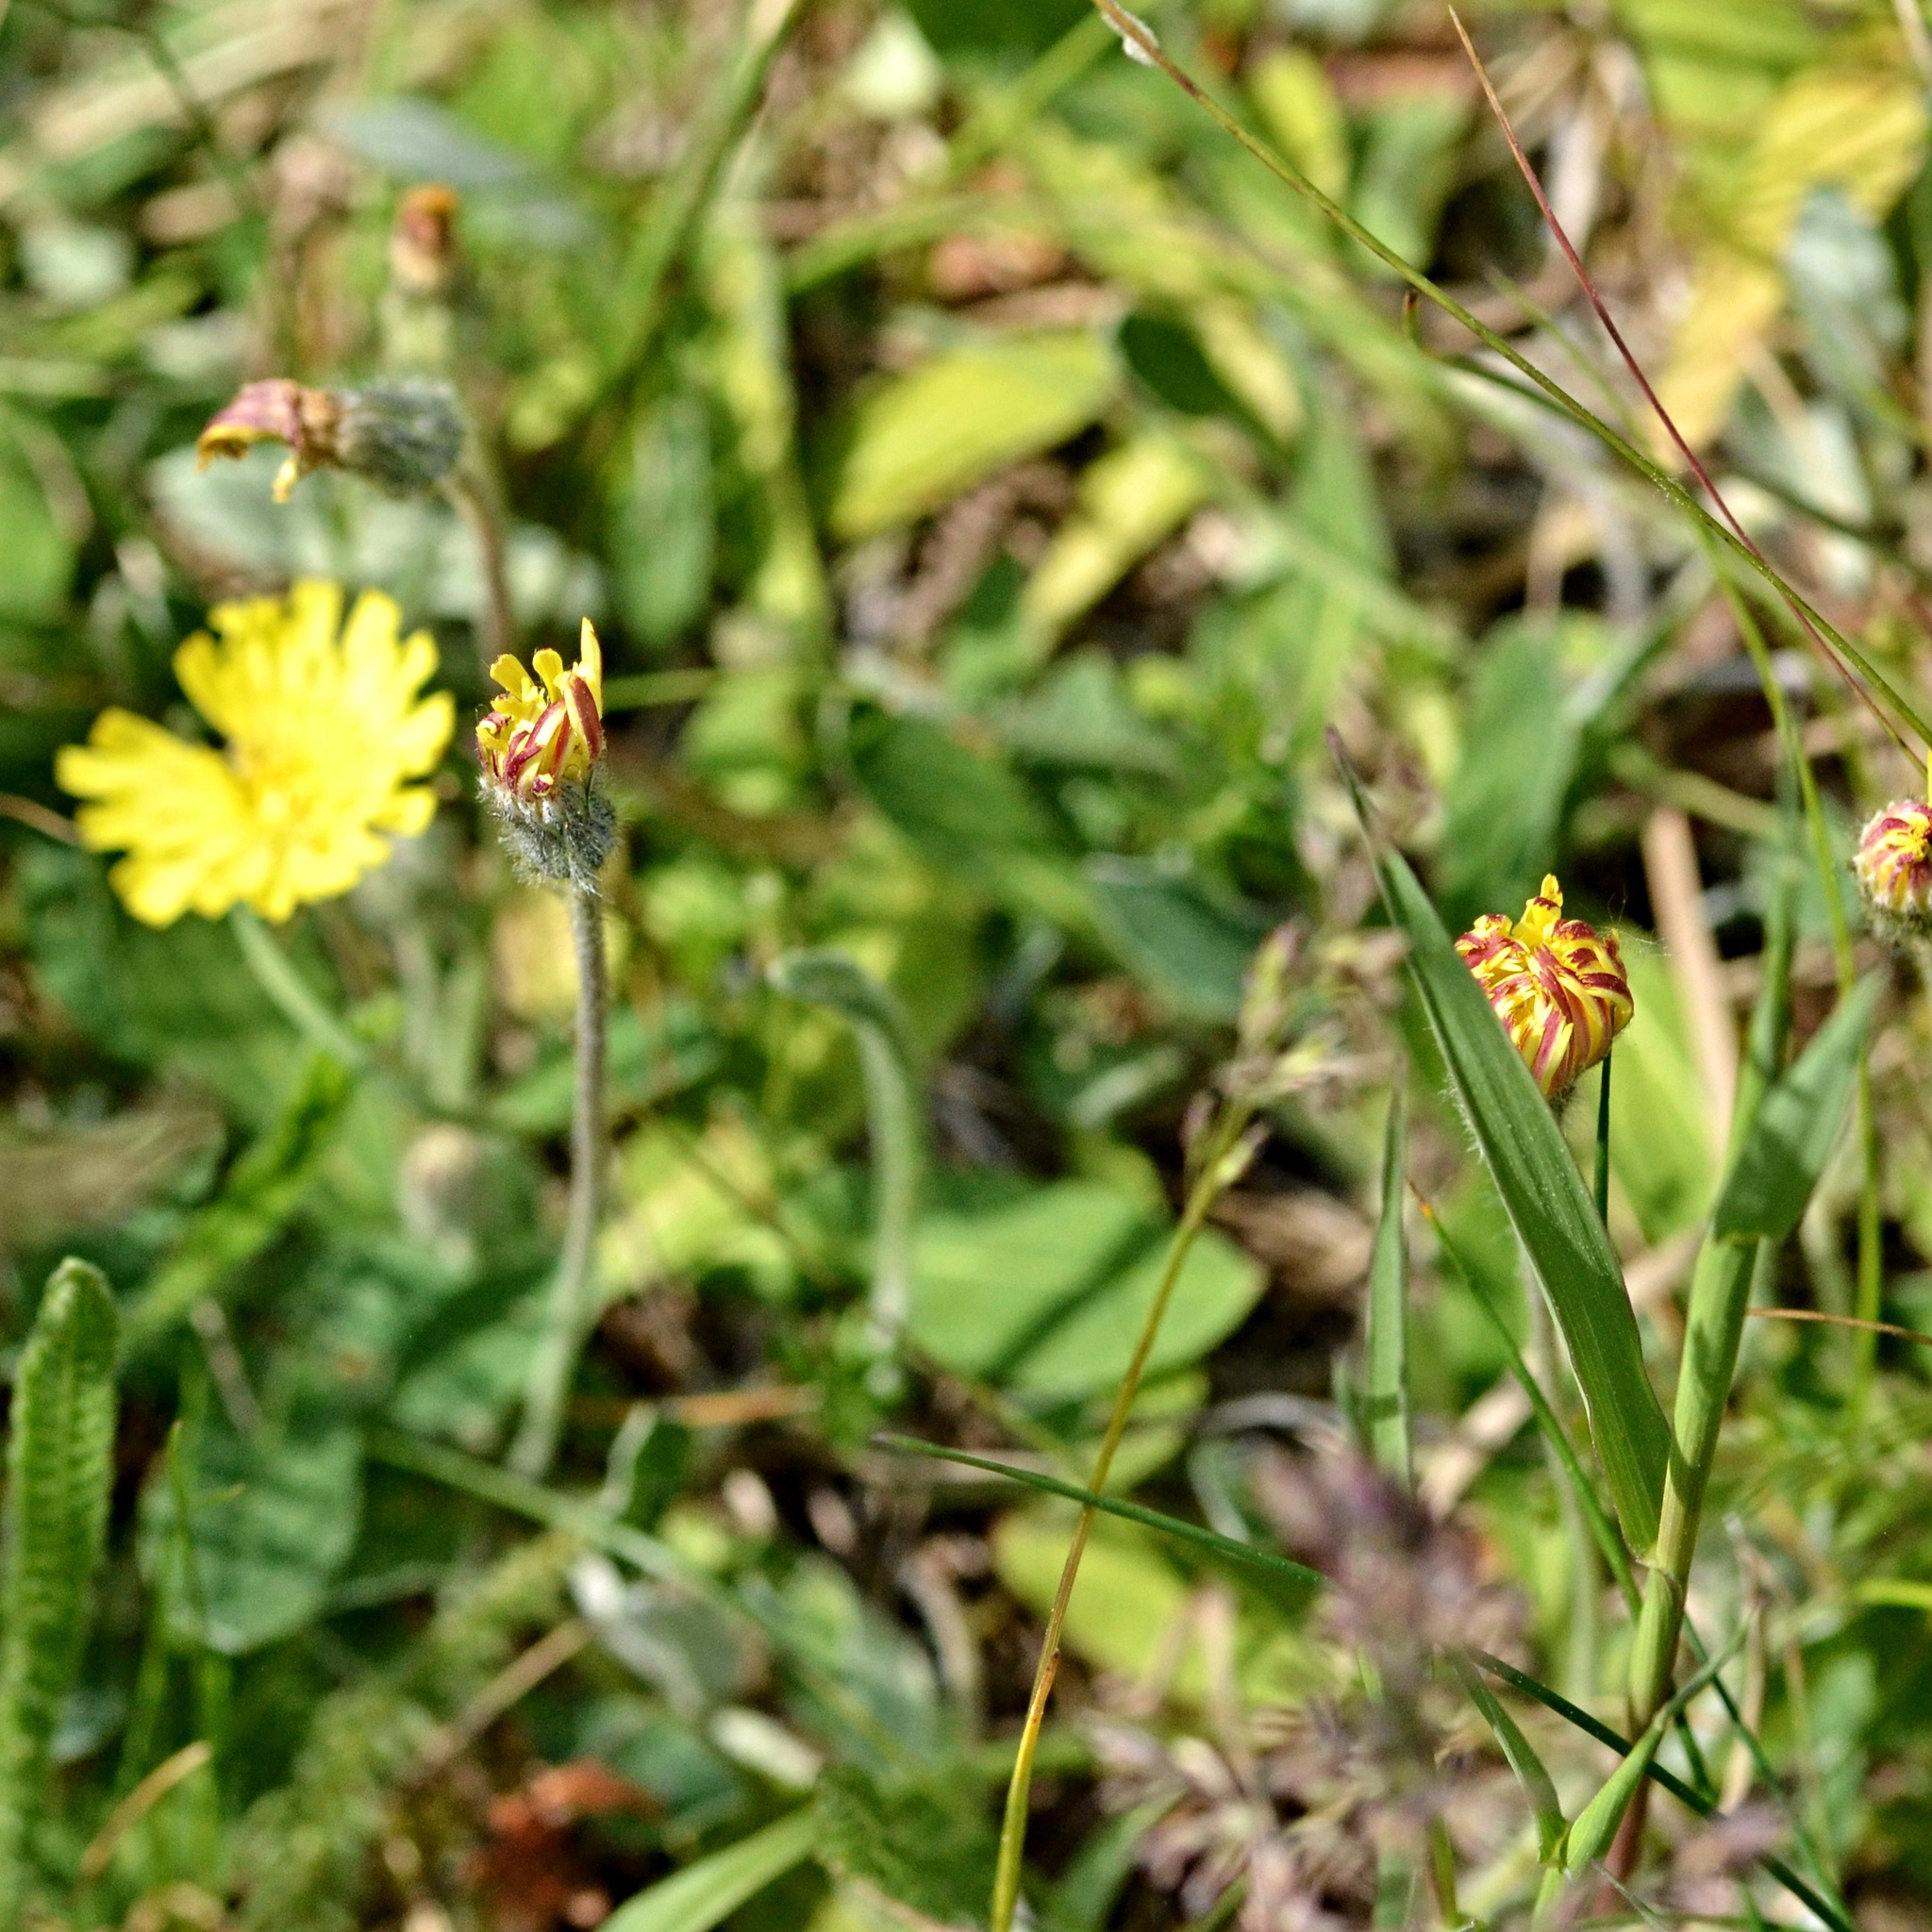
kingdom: Plantae
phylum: Tracheophyta
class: Magnoliopsida
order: Asterales
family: Asteraceae
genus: Pilosella
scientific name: Pilosella officinarum
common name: Mouse-ear hawkweed
